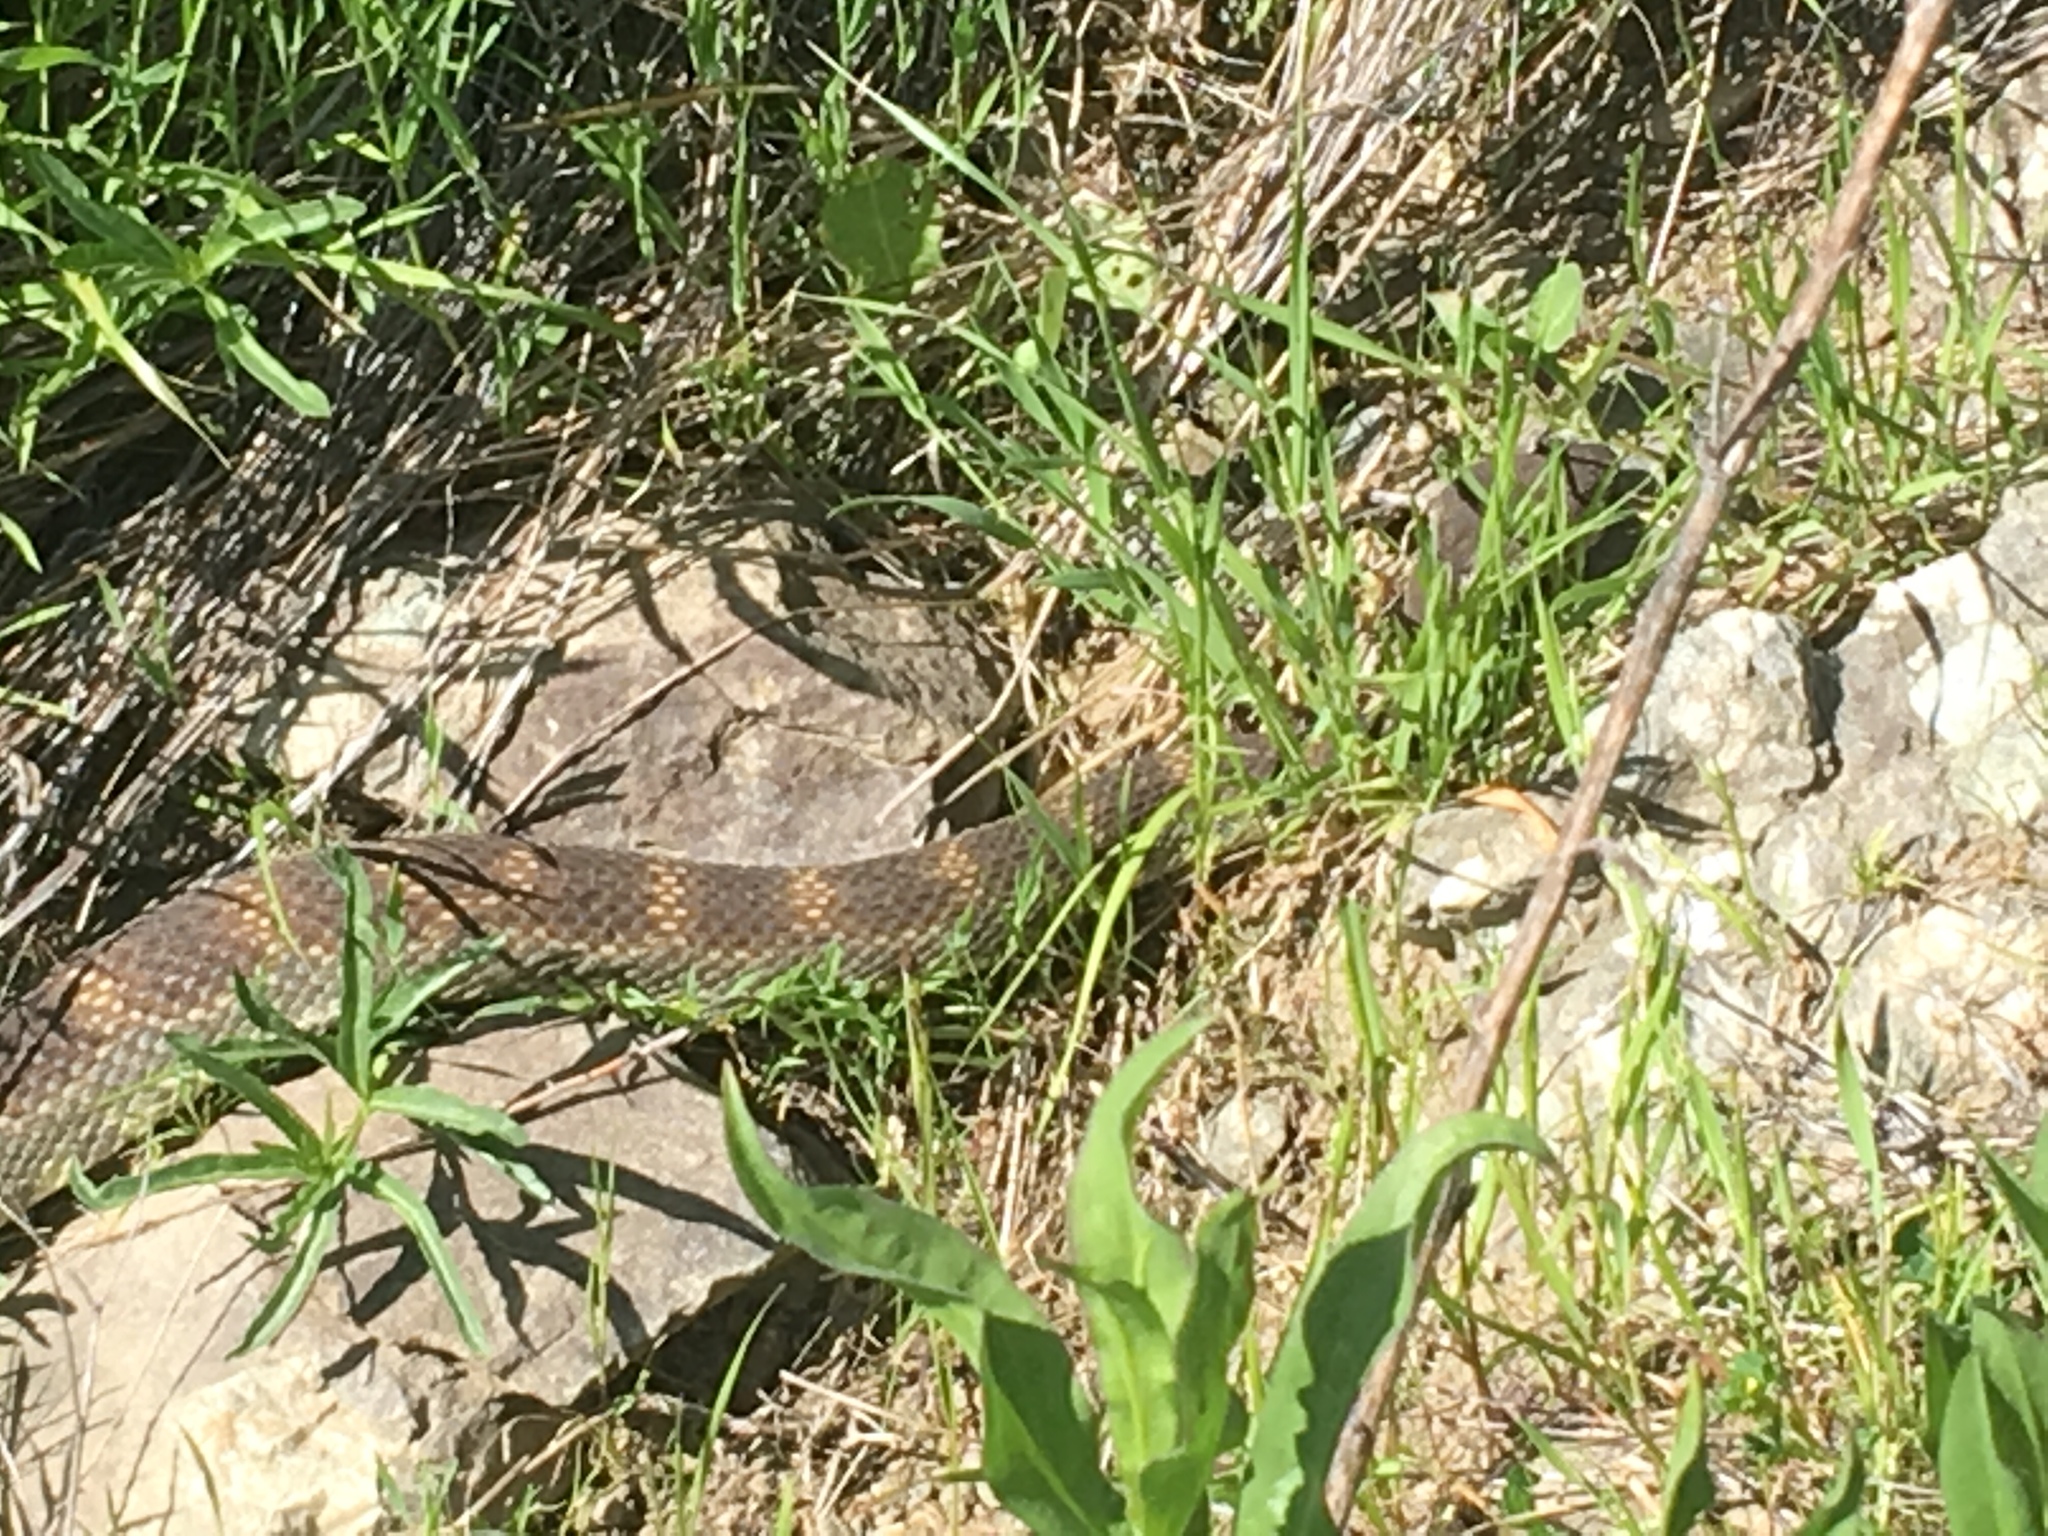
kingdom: Animalia
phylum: Chordata
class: Squamata
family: Viperidae
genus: Crotalus
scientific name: Crotalus oreganus
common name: Abyssus
